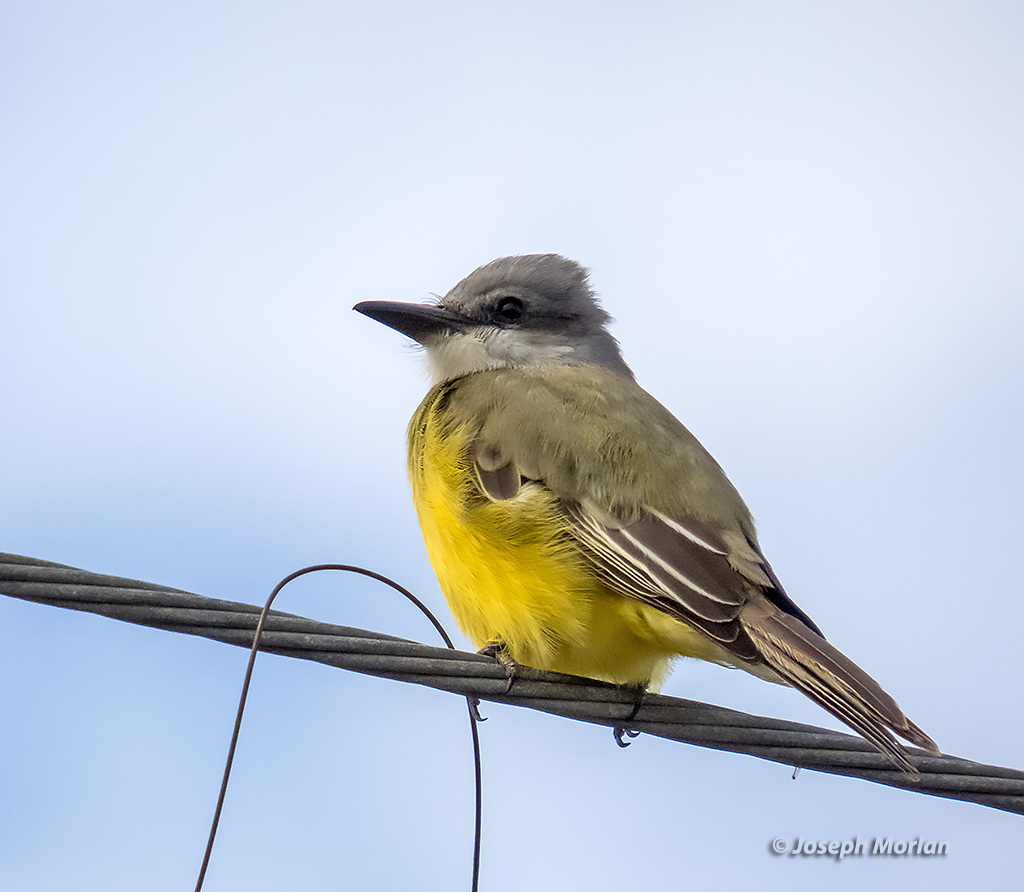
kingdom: Animalia
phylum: Chordata
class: Aves
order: Passeriformes
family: Tyrannidae
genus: Tyrannus
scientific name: Tyrannus melancholicus
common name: Tropical kingbird
